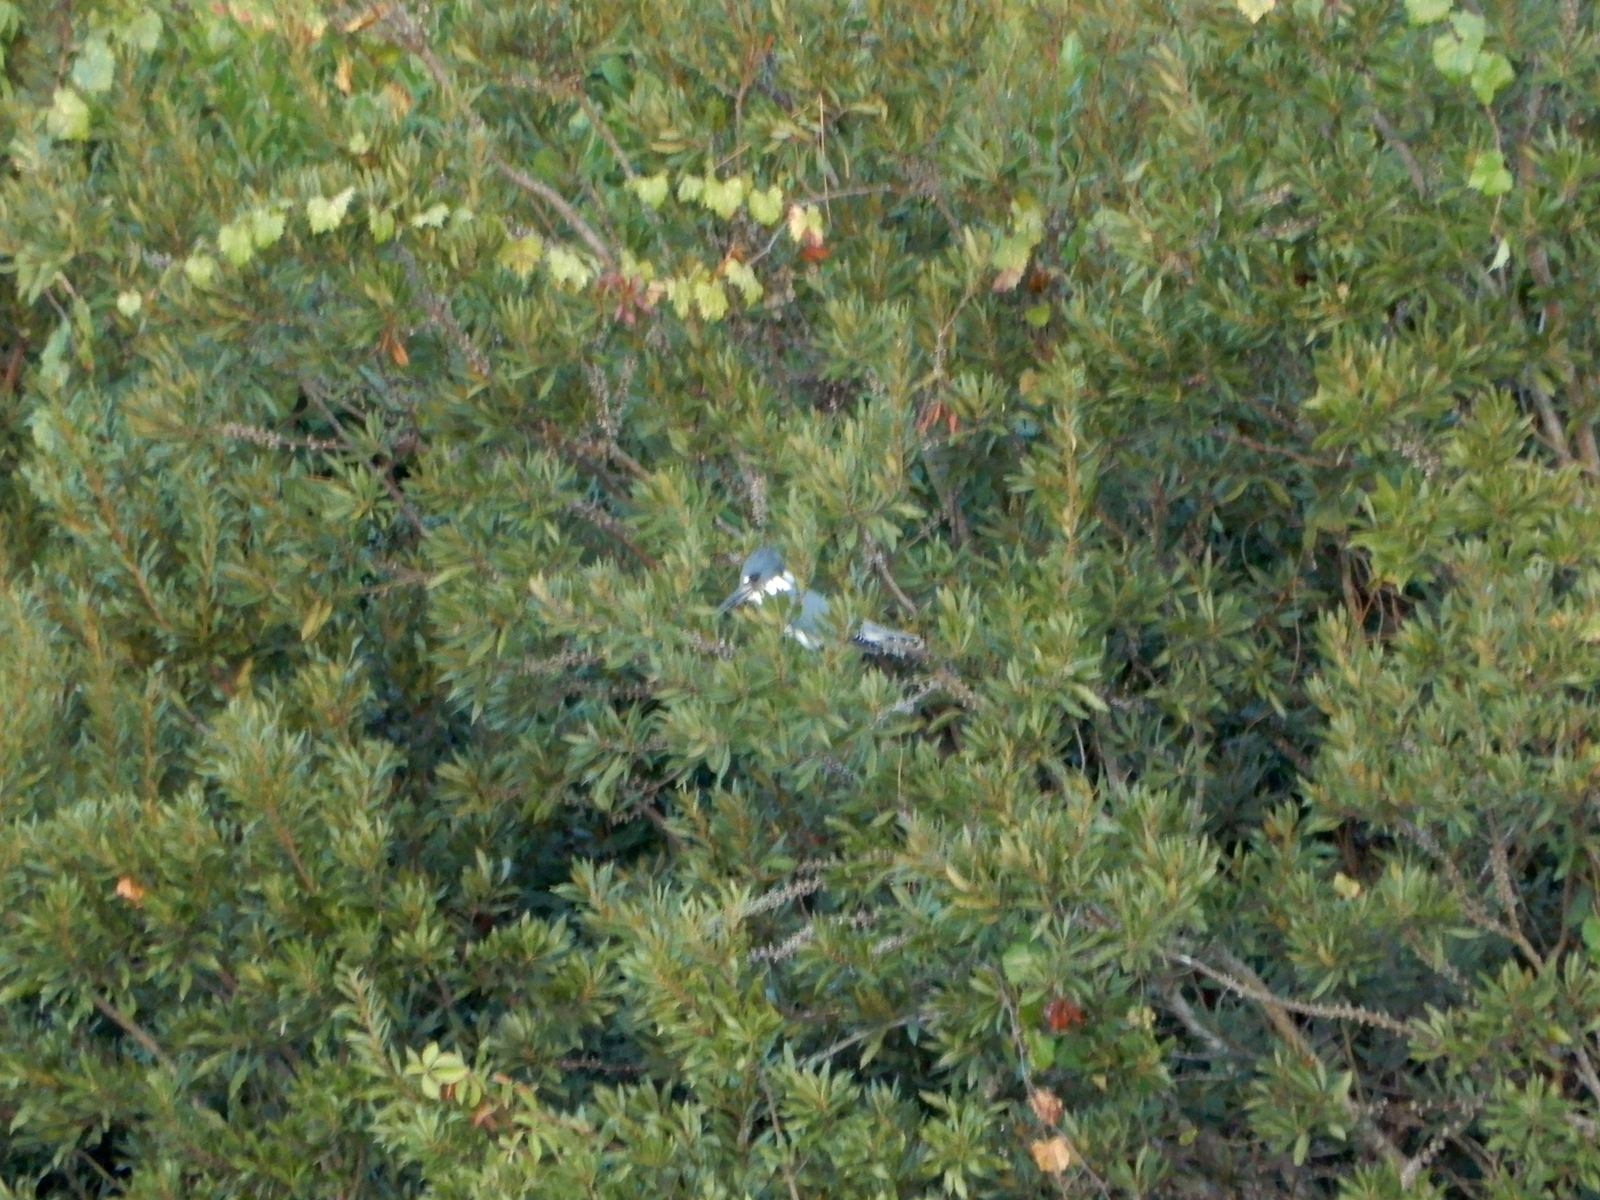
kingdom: Animalia
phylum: Chordata
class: Aves
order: Coraciiformes
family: Alcedinidae
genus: Megaceryle
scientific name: Megaceryle alcyon
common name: Belted kingfisher
